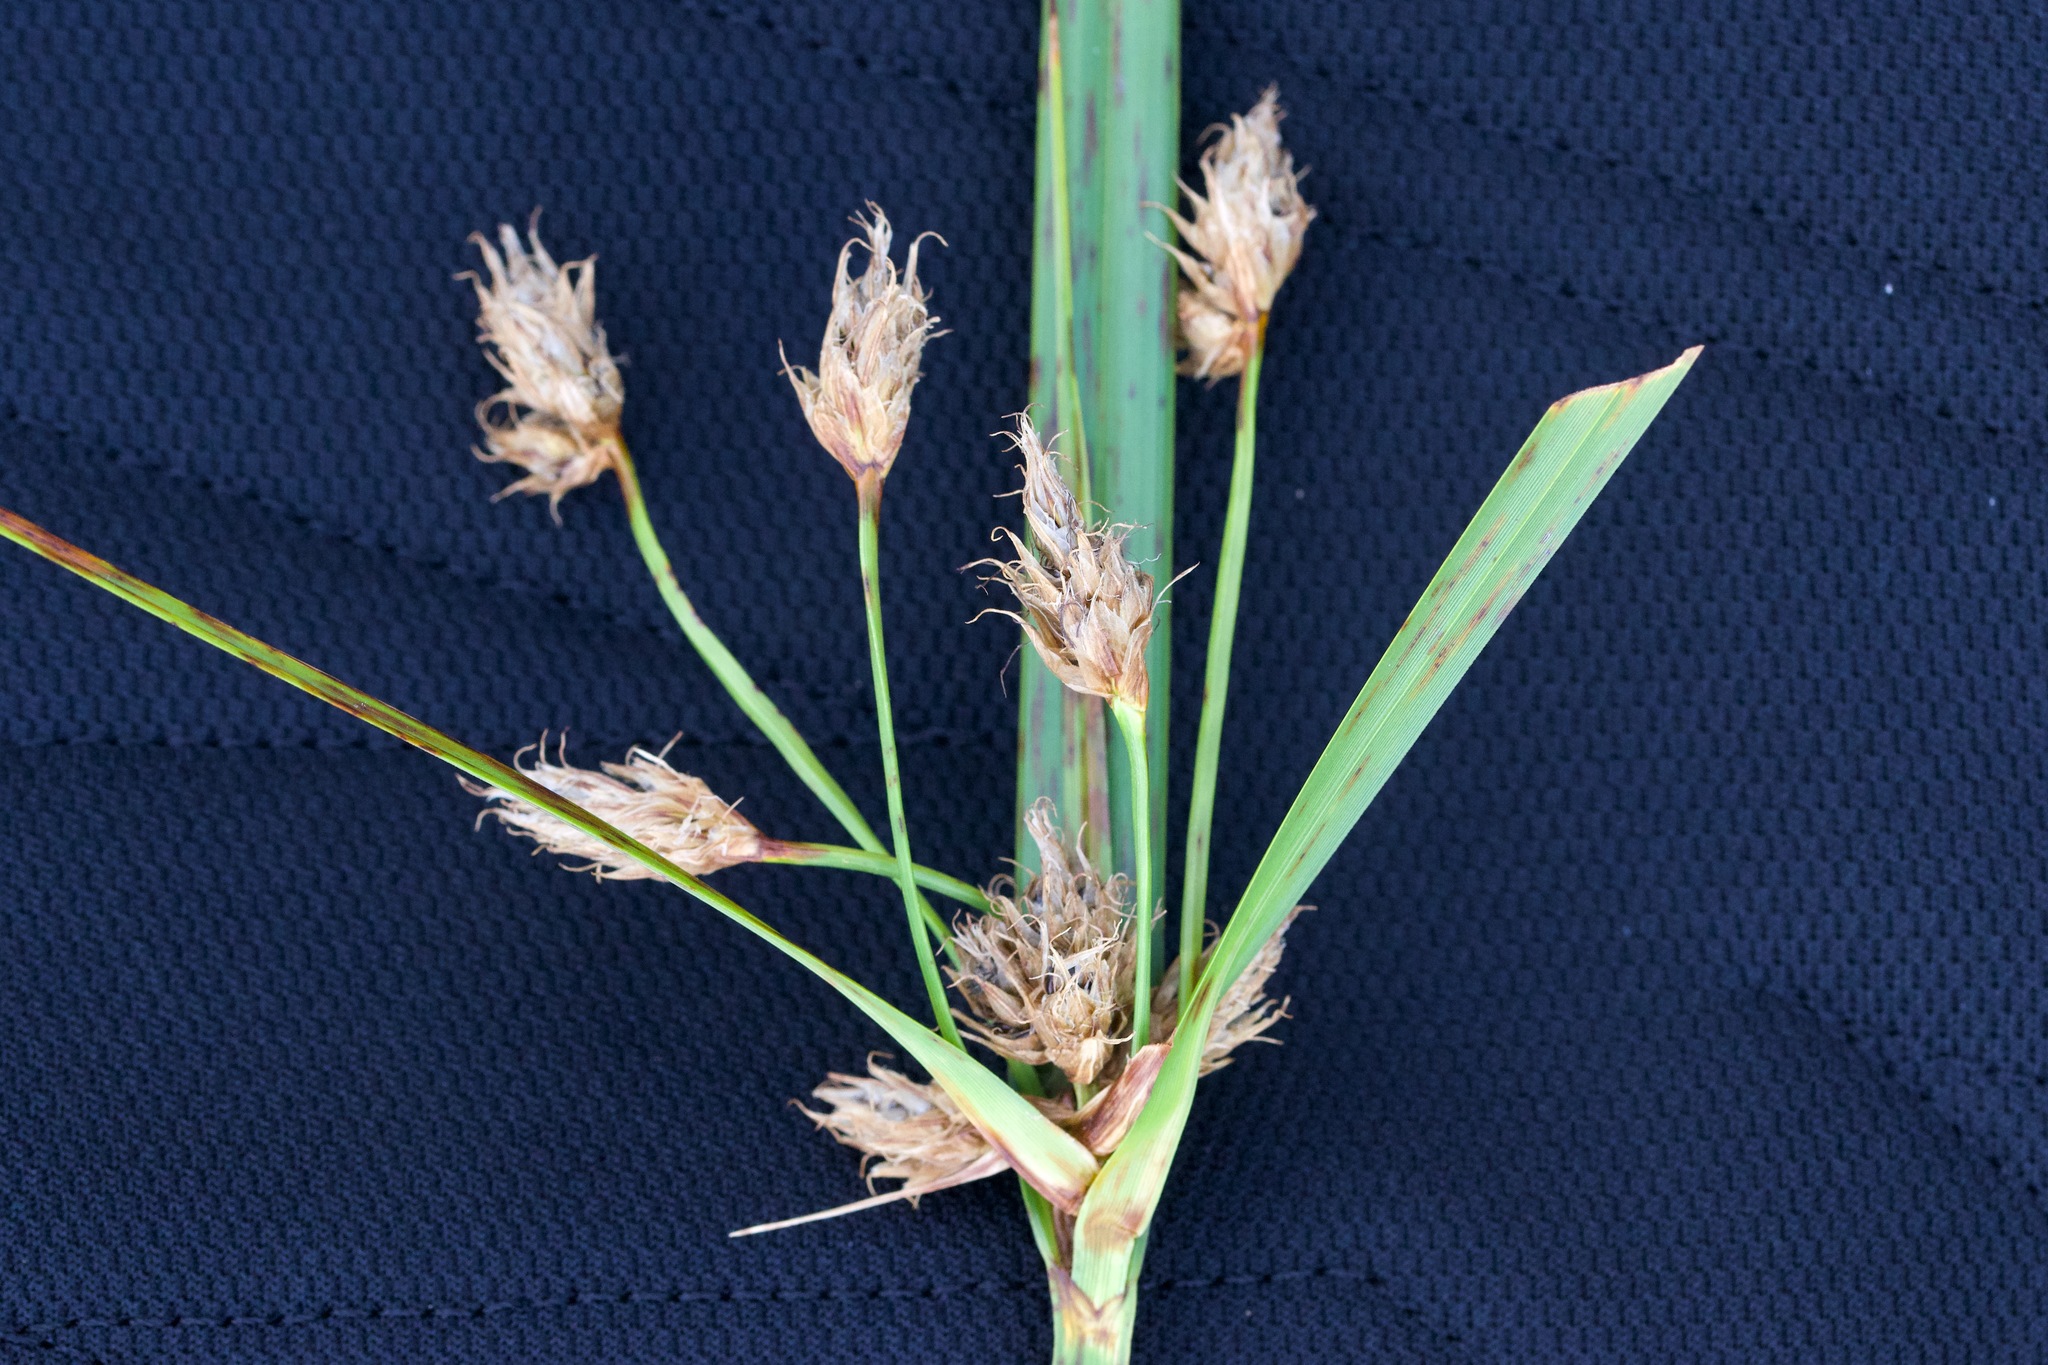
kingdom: Plantae
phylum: Tracheophyta
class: Liliopsida
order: Poales
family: Cyperaceae
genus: Bolboschoenus
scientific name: Bolboschoenus fluviatilis
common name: River bulrush
